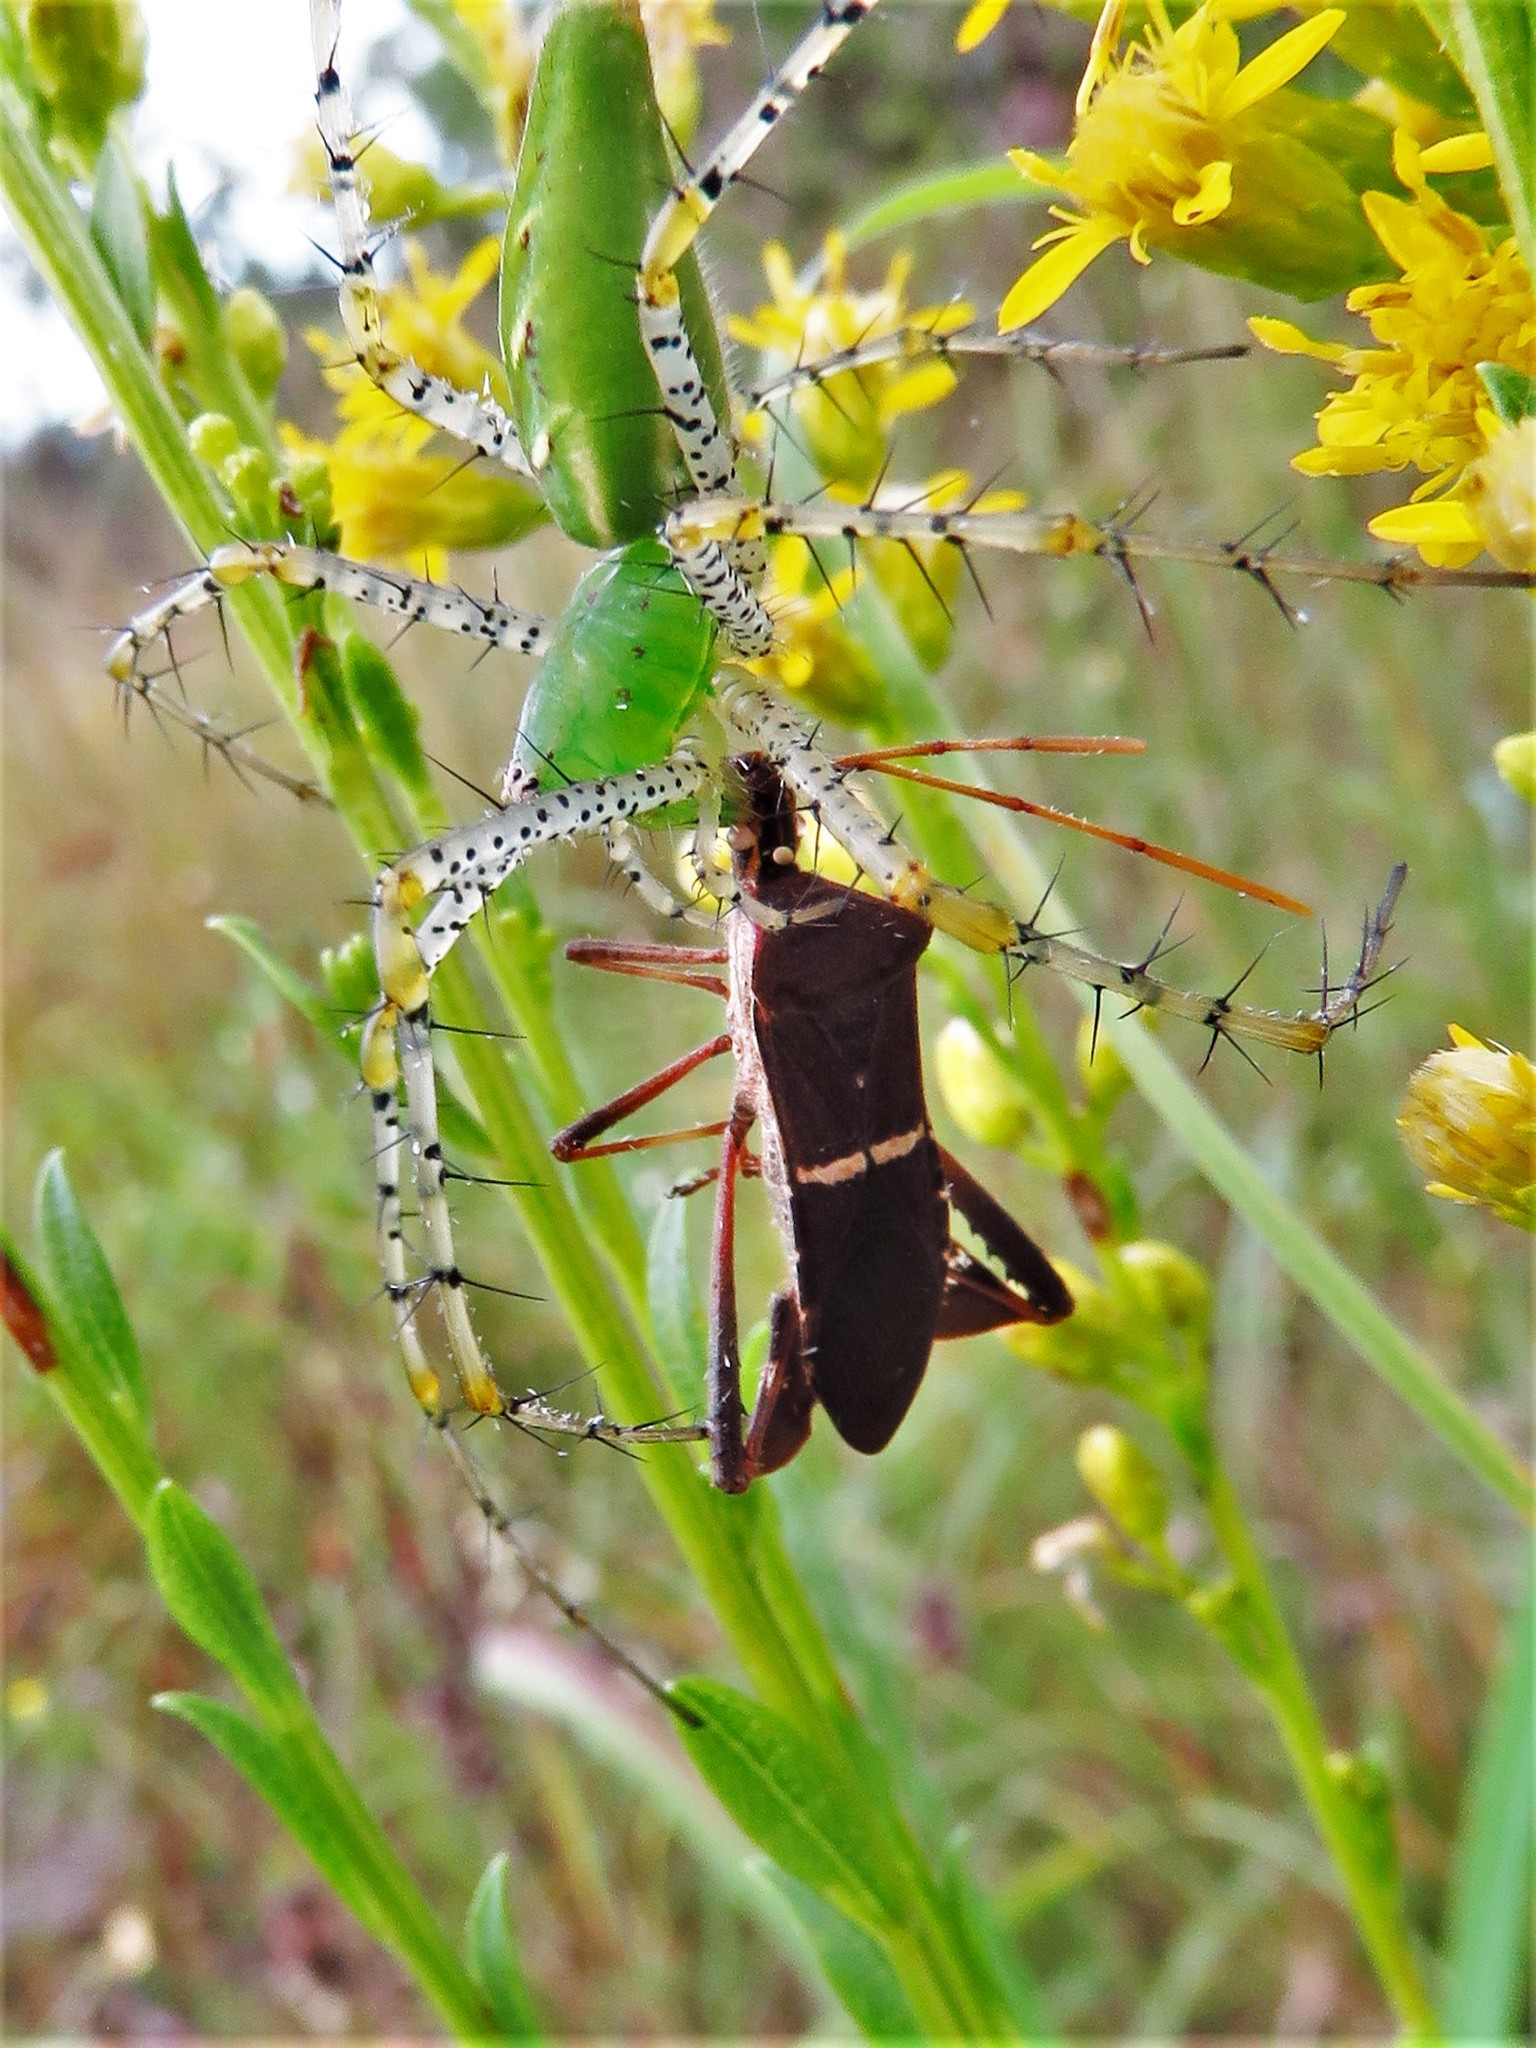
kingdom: Animalia
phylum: Arthropoda
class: Insecta
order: Hemiptera
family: Coreidae
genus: Leptoglossus
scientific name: Leptoglossus phyllopus
